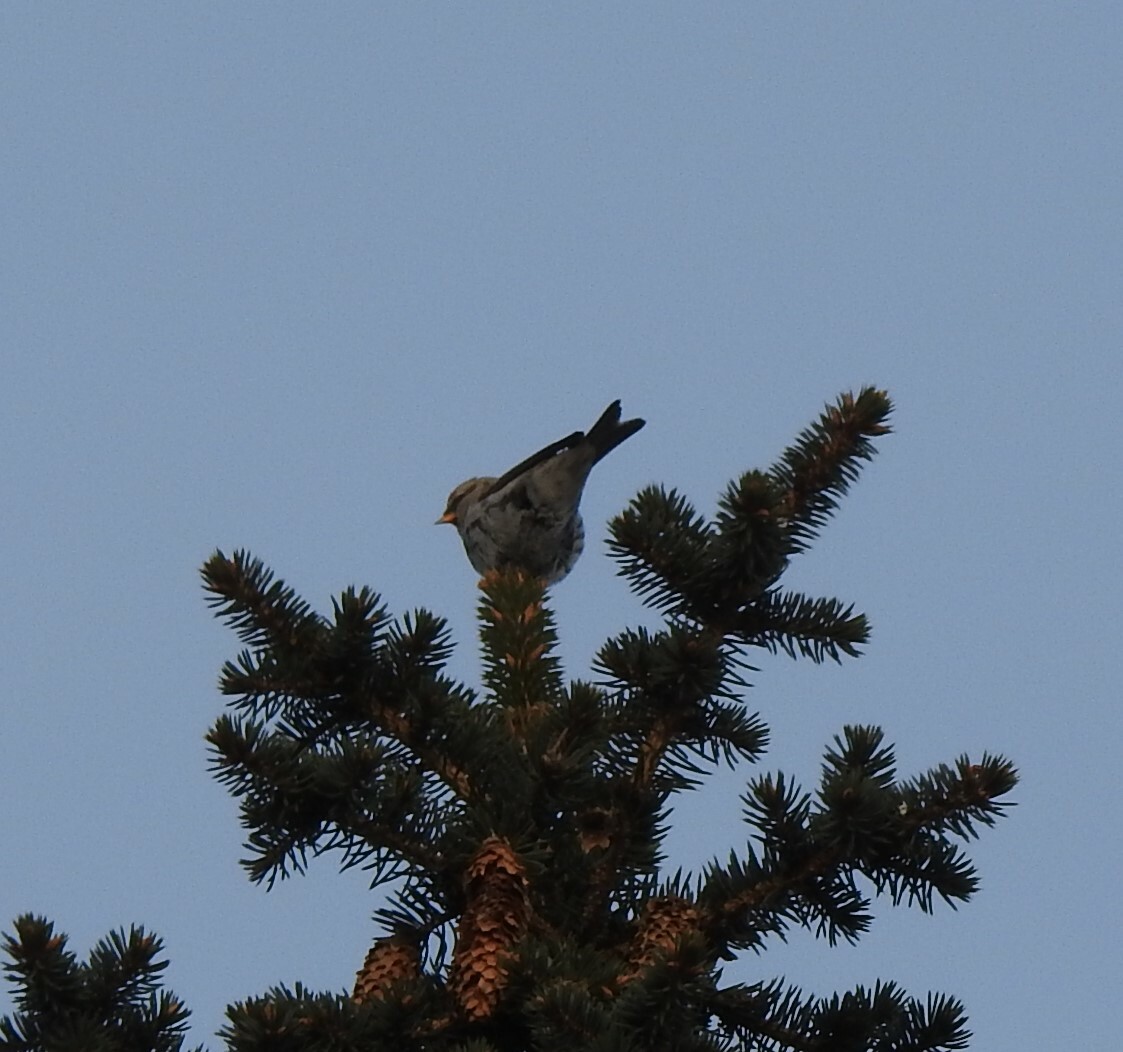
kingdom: Animalia
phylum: Chordata
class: Aves
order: Passeriformes
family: Fringillidae
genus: Acanthis
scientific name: Acanthis flammea
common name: Common redpoll
